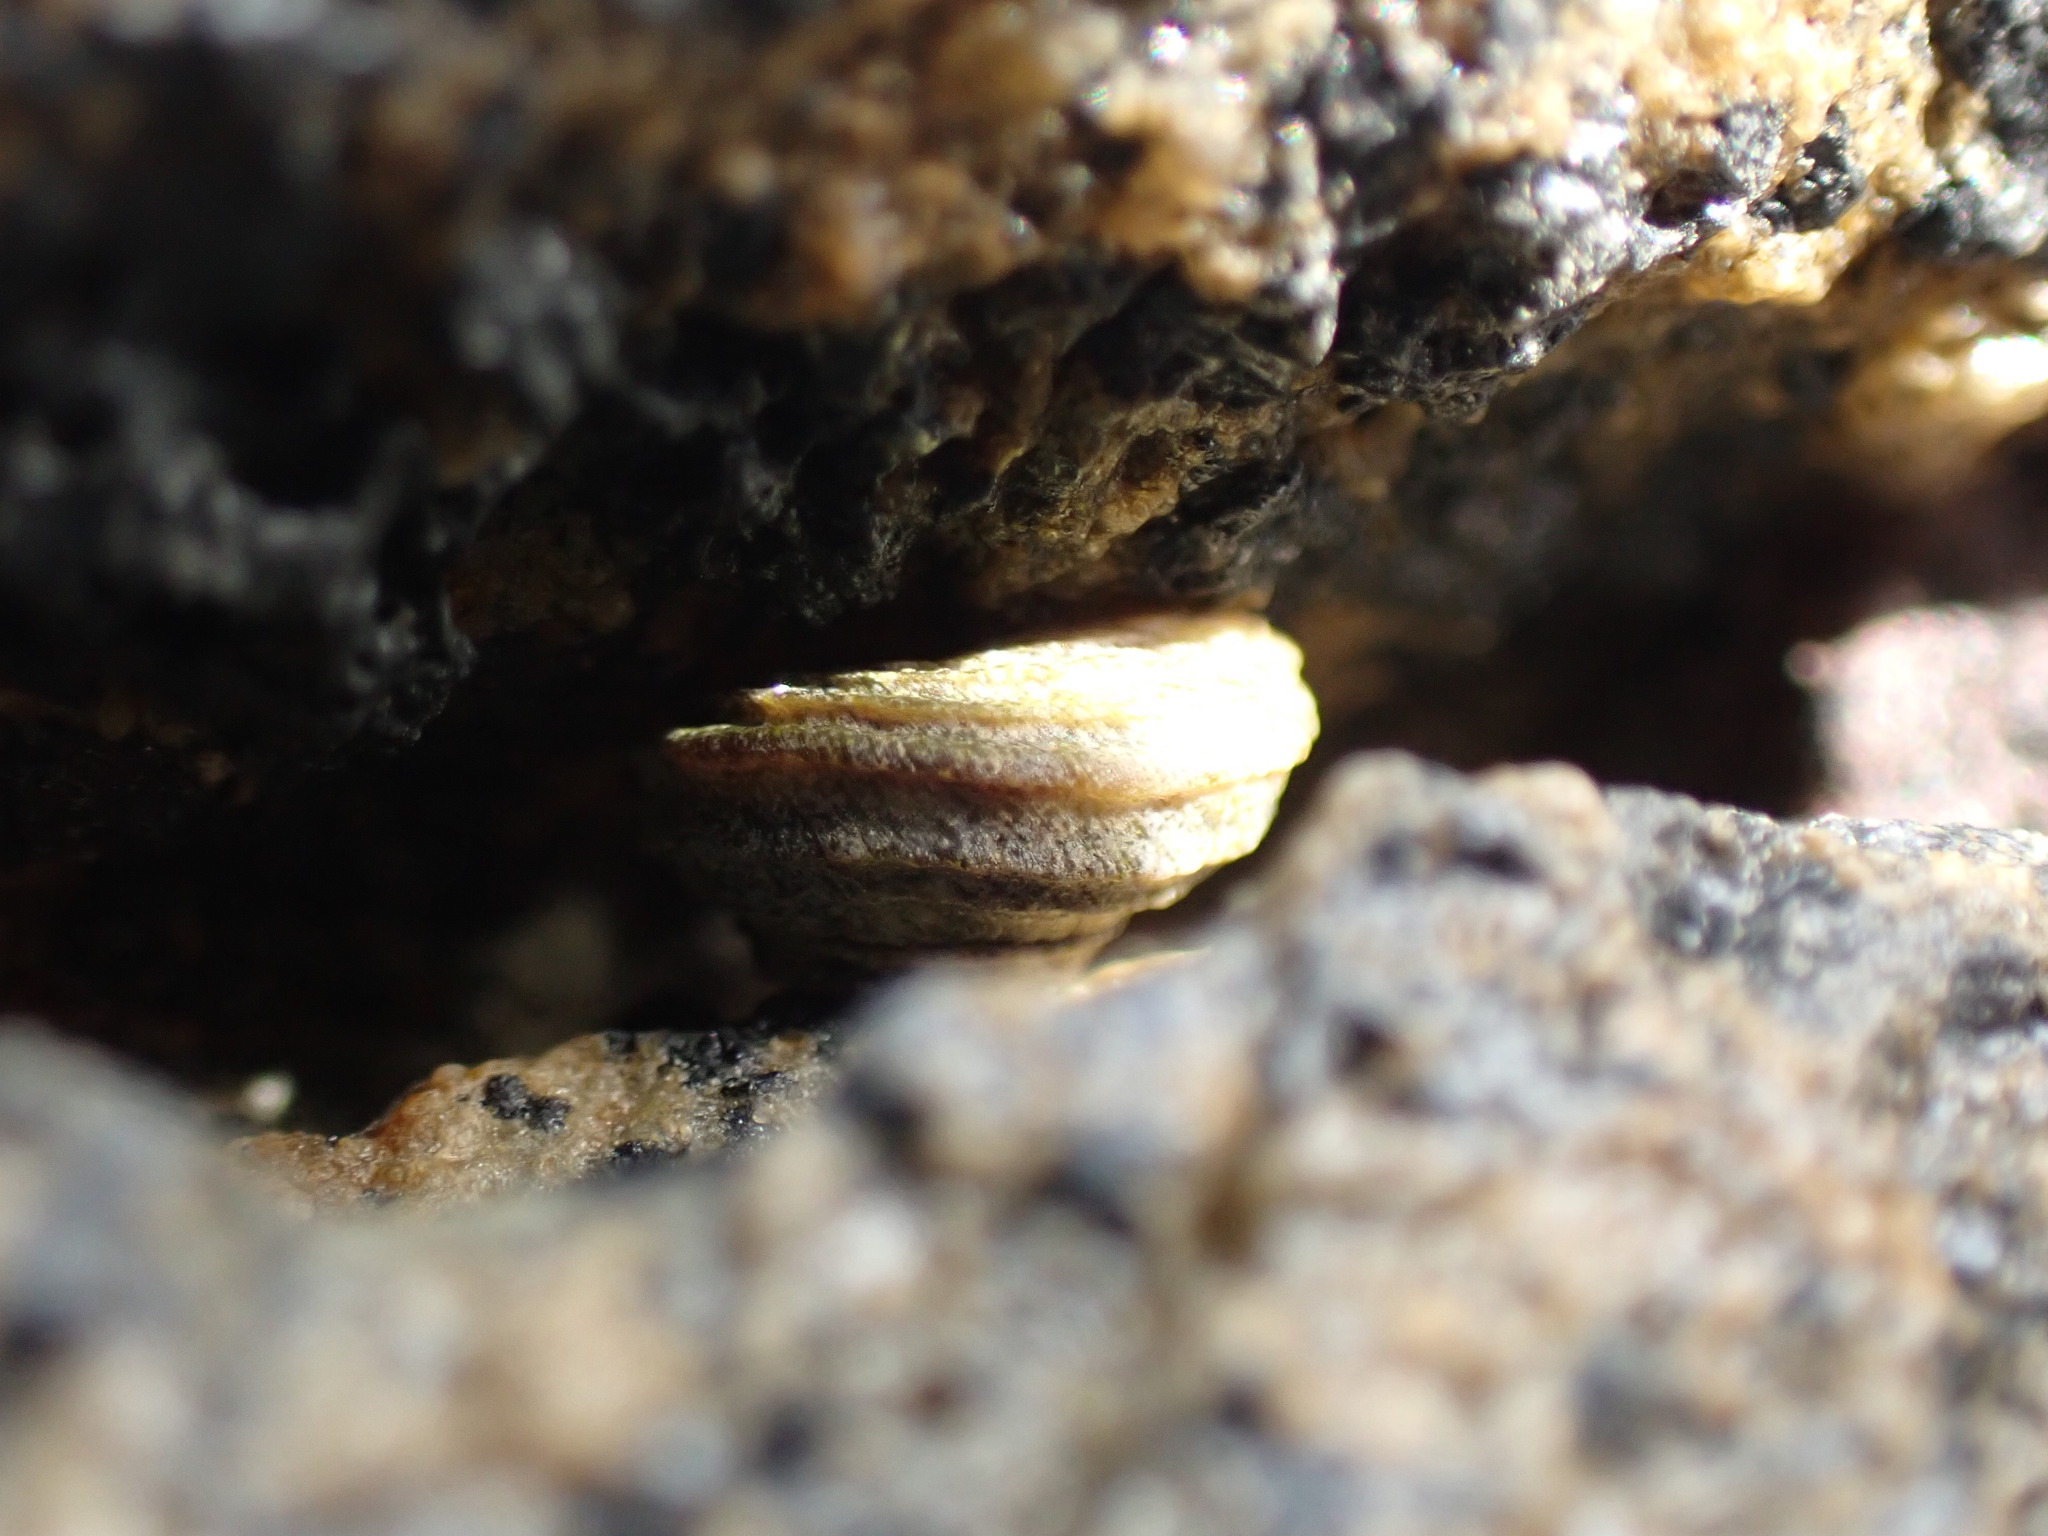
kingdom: Animalia
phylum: Mollusca
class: Gastropoda
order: Littorinimorpha
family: Littorinidae
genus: Risellopsis
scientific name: Risellopsis varia
